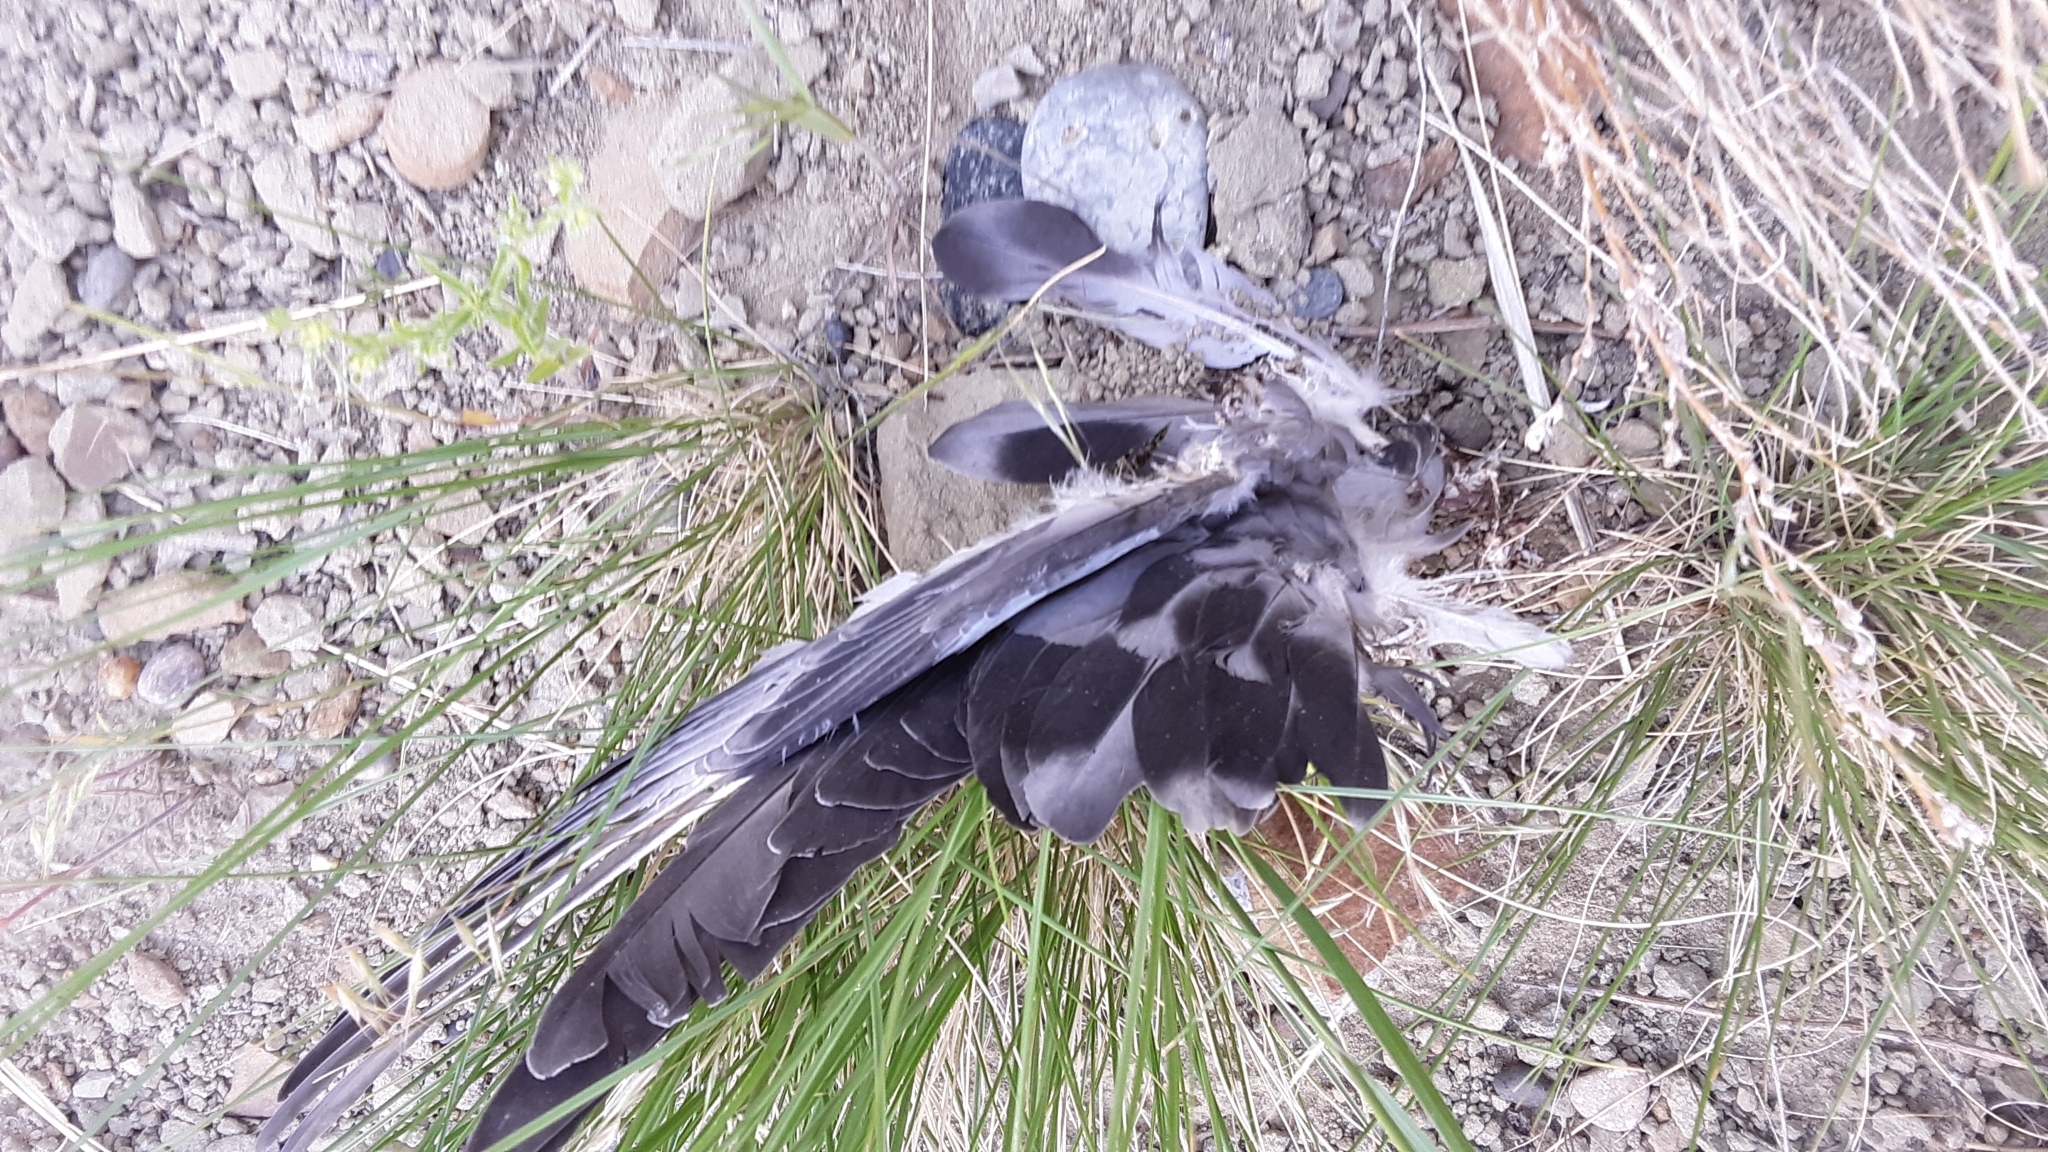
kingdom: Animalia
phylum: Chordata
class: Aves
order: Columbiformes
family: Columbidae
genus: Columba
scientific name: Columba livia
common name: Rock pigeon
